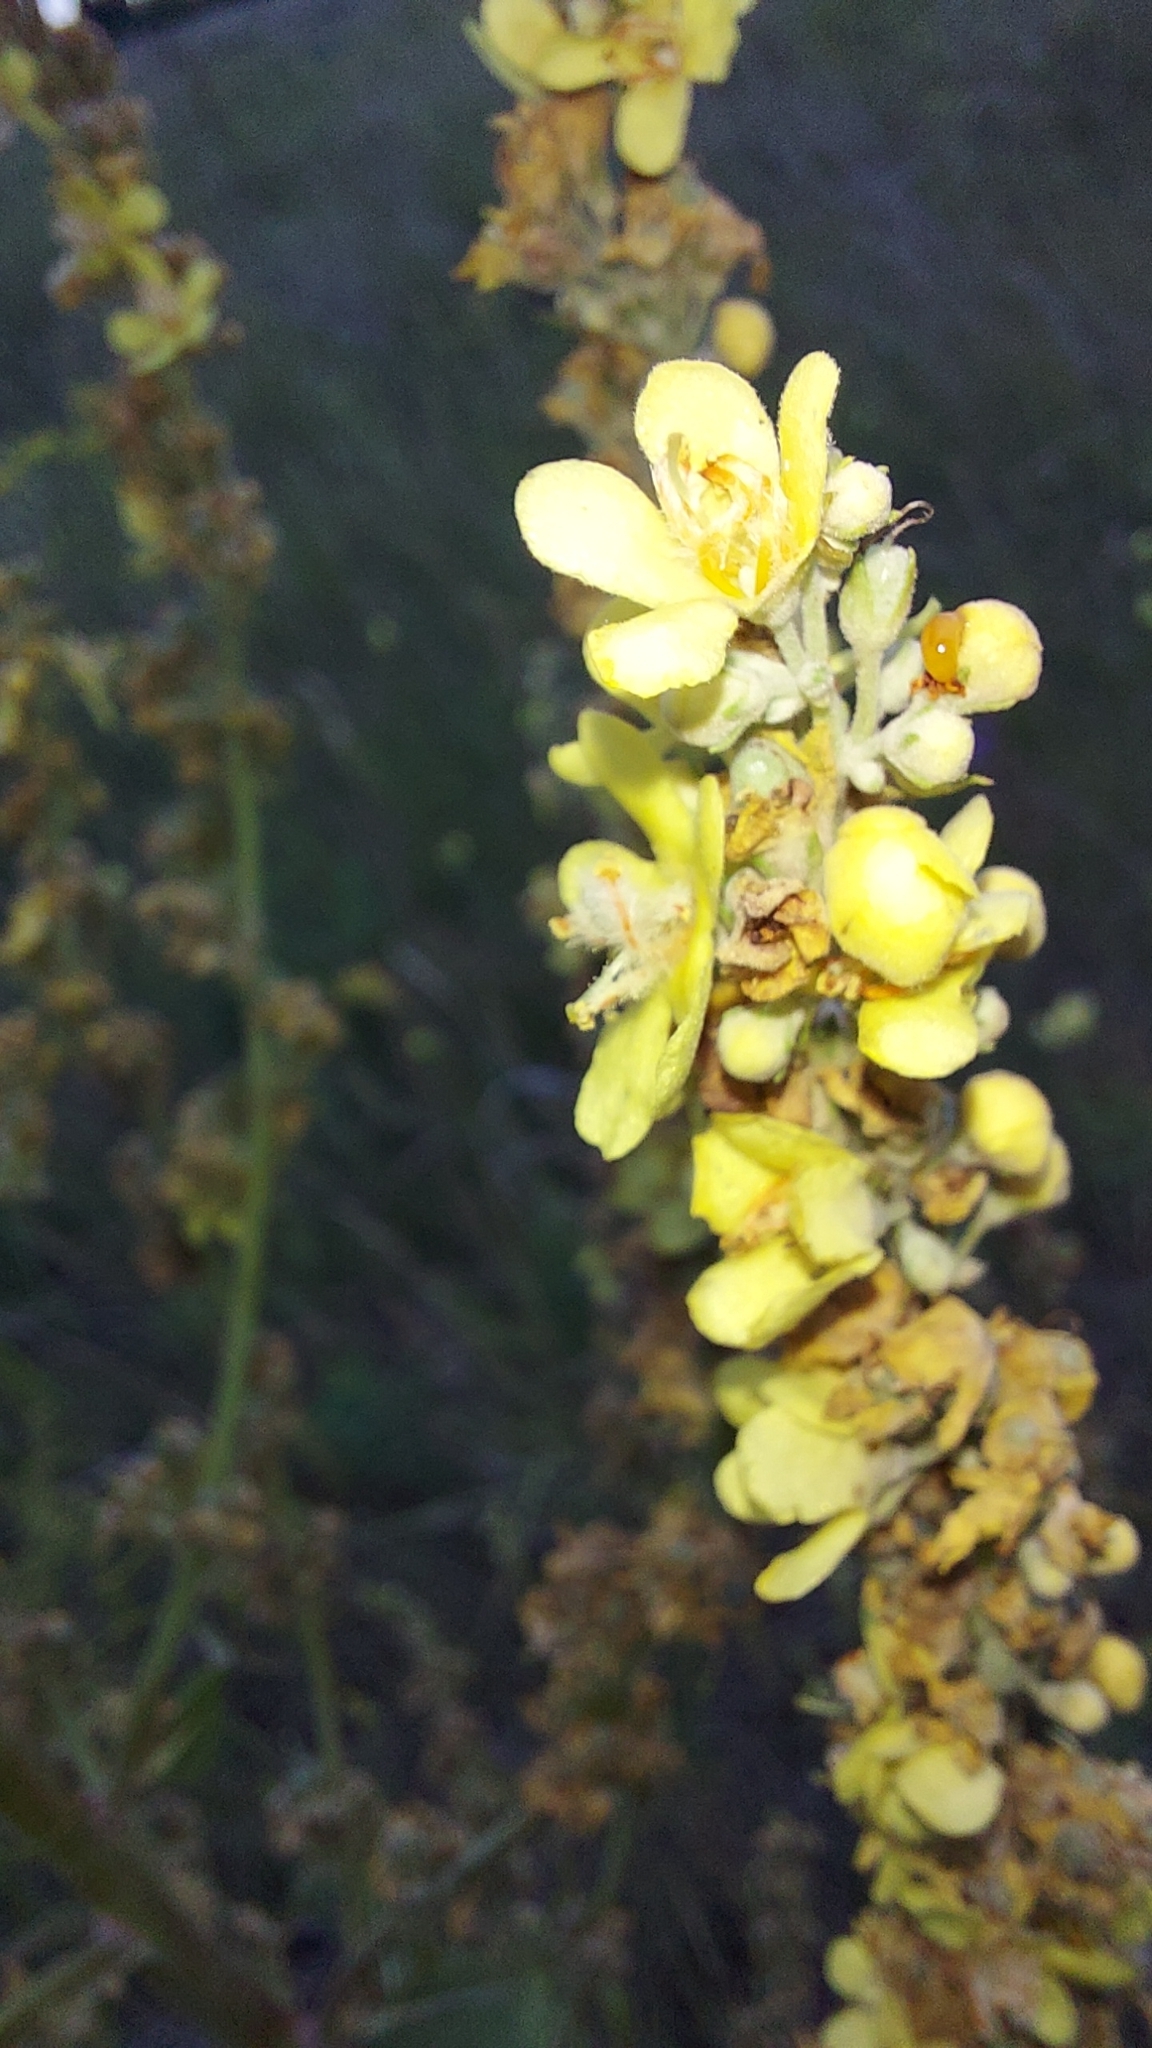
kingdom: Plantae
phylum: Tracheophyta
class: Magnoliopsida
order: Lamiales
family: Scrophulariaceae
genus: Verbascum
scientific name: Verbascum lychnitis
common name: White mullein
